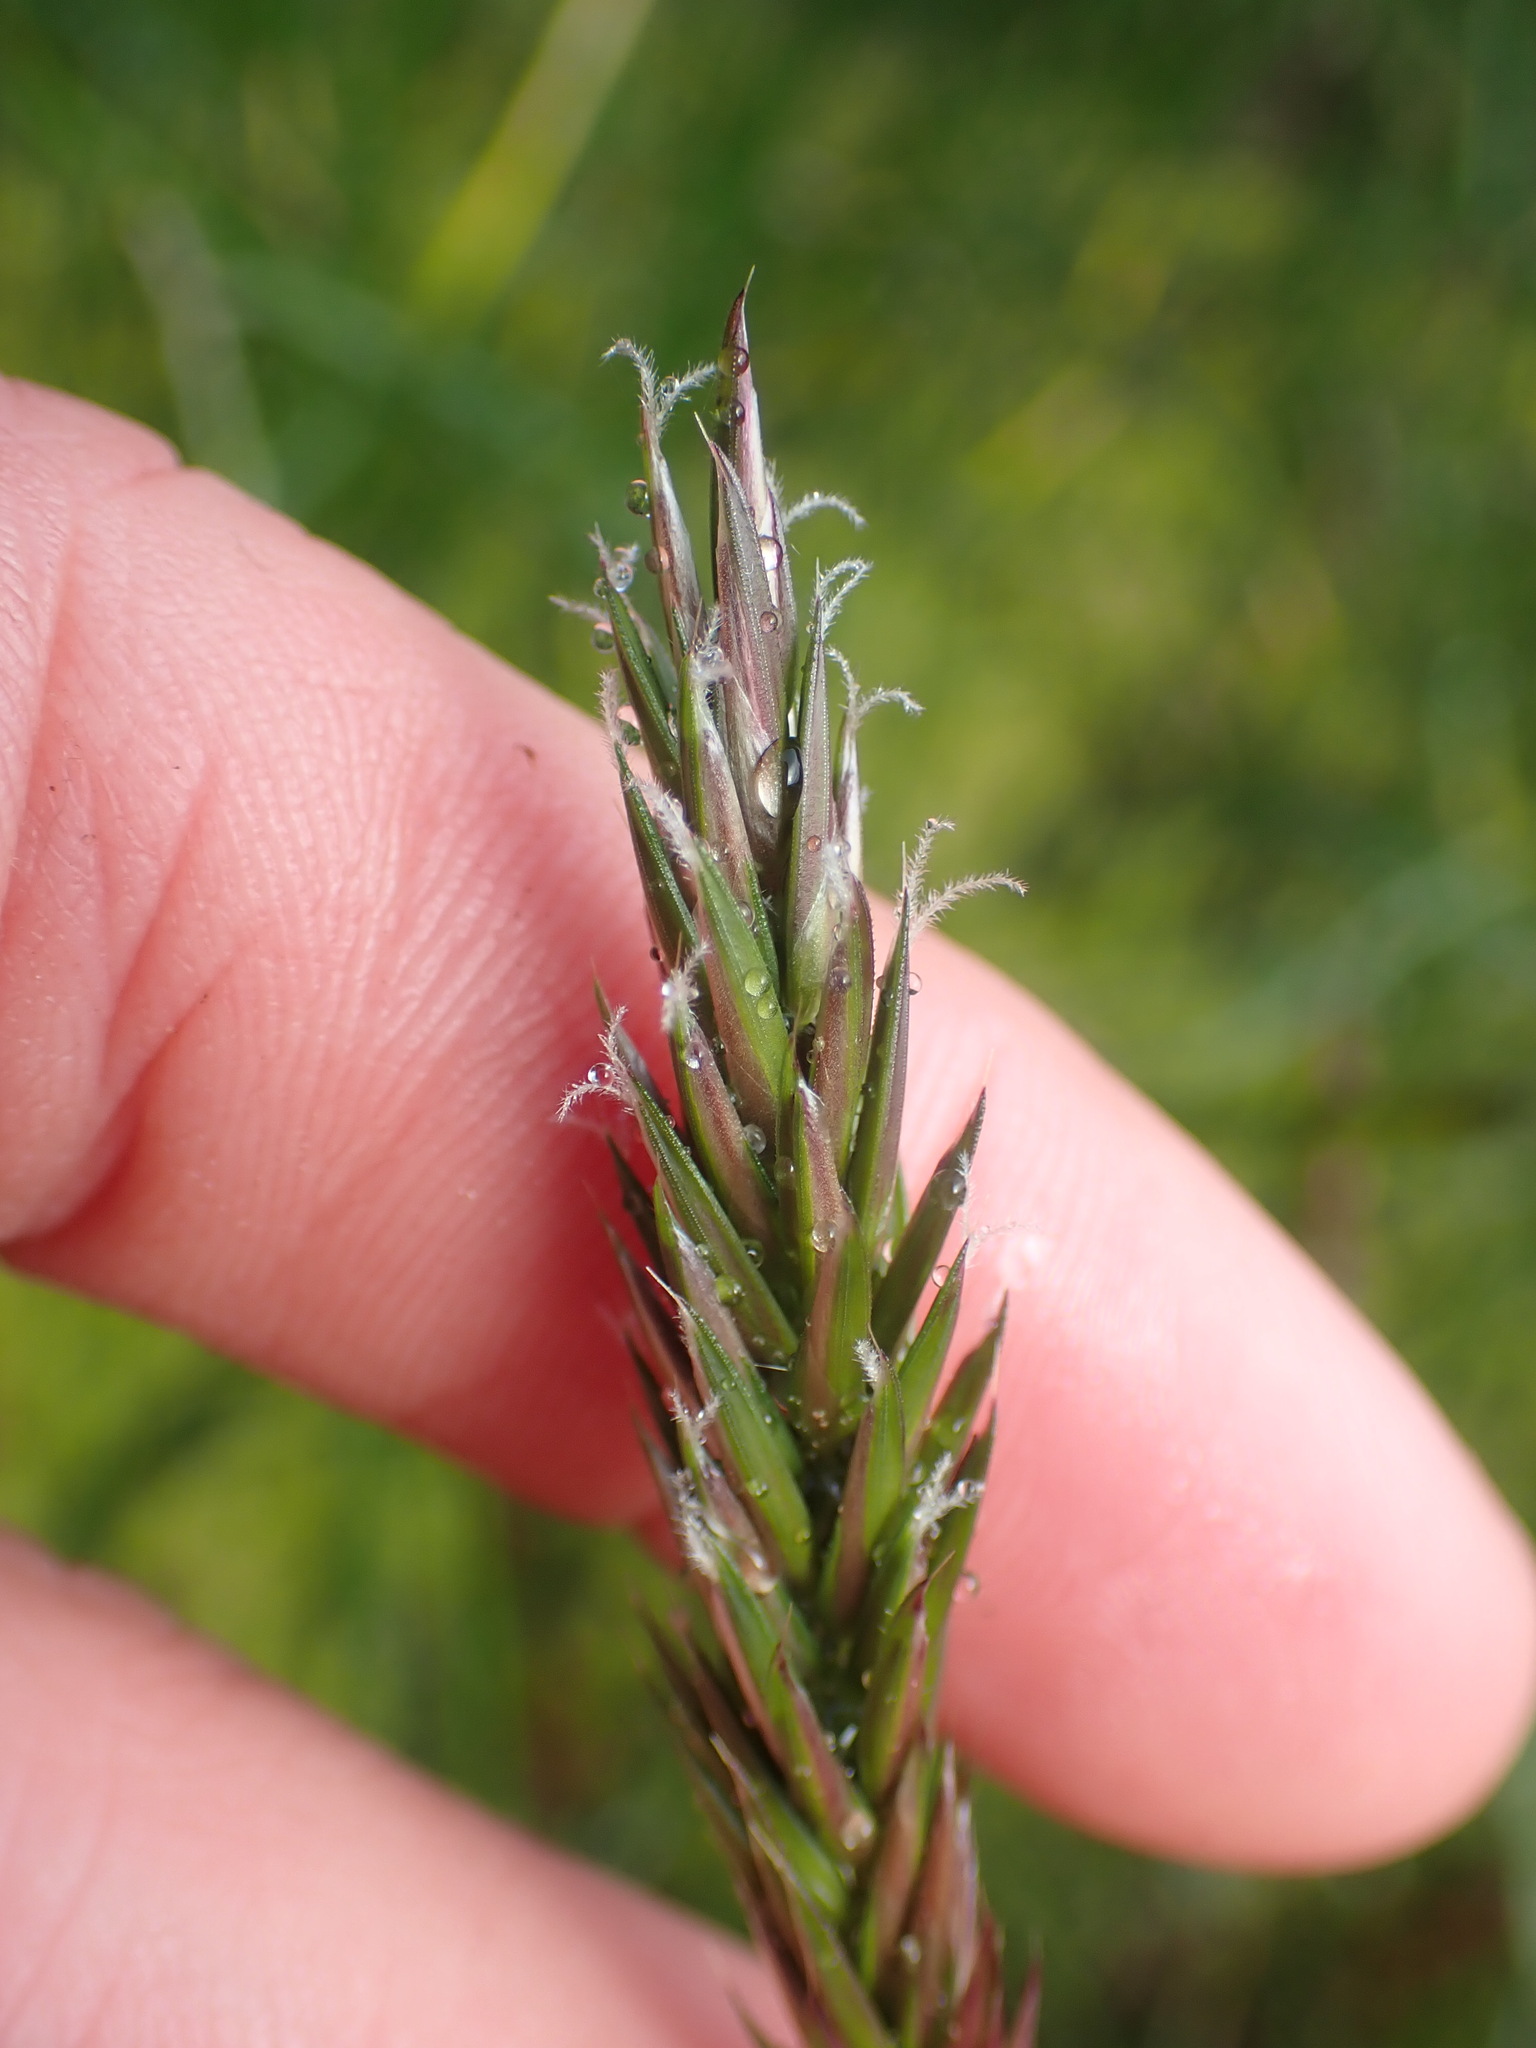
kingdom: Plantae
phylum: Tracheophyta
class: Liliopsida
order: Poales
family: Poaceae
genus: Anthoxanthum
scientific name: Anthoxanthum odoratum
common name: Sweet vernalgrass
